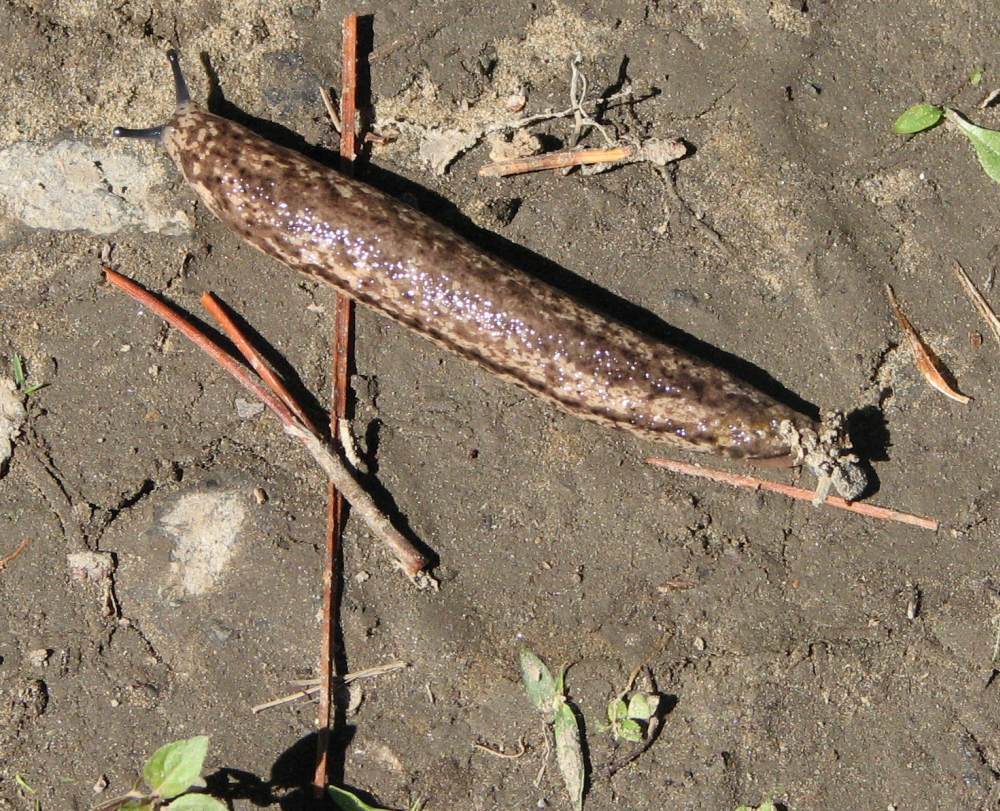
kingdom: Animalia
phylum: Mollusca
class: Gastropoda
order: Stylommatophora
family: Philomycidae
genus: Philomycus
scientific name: Philomycus togatus
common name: Toga mantleslug
